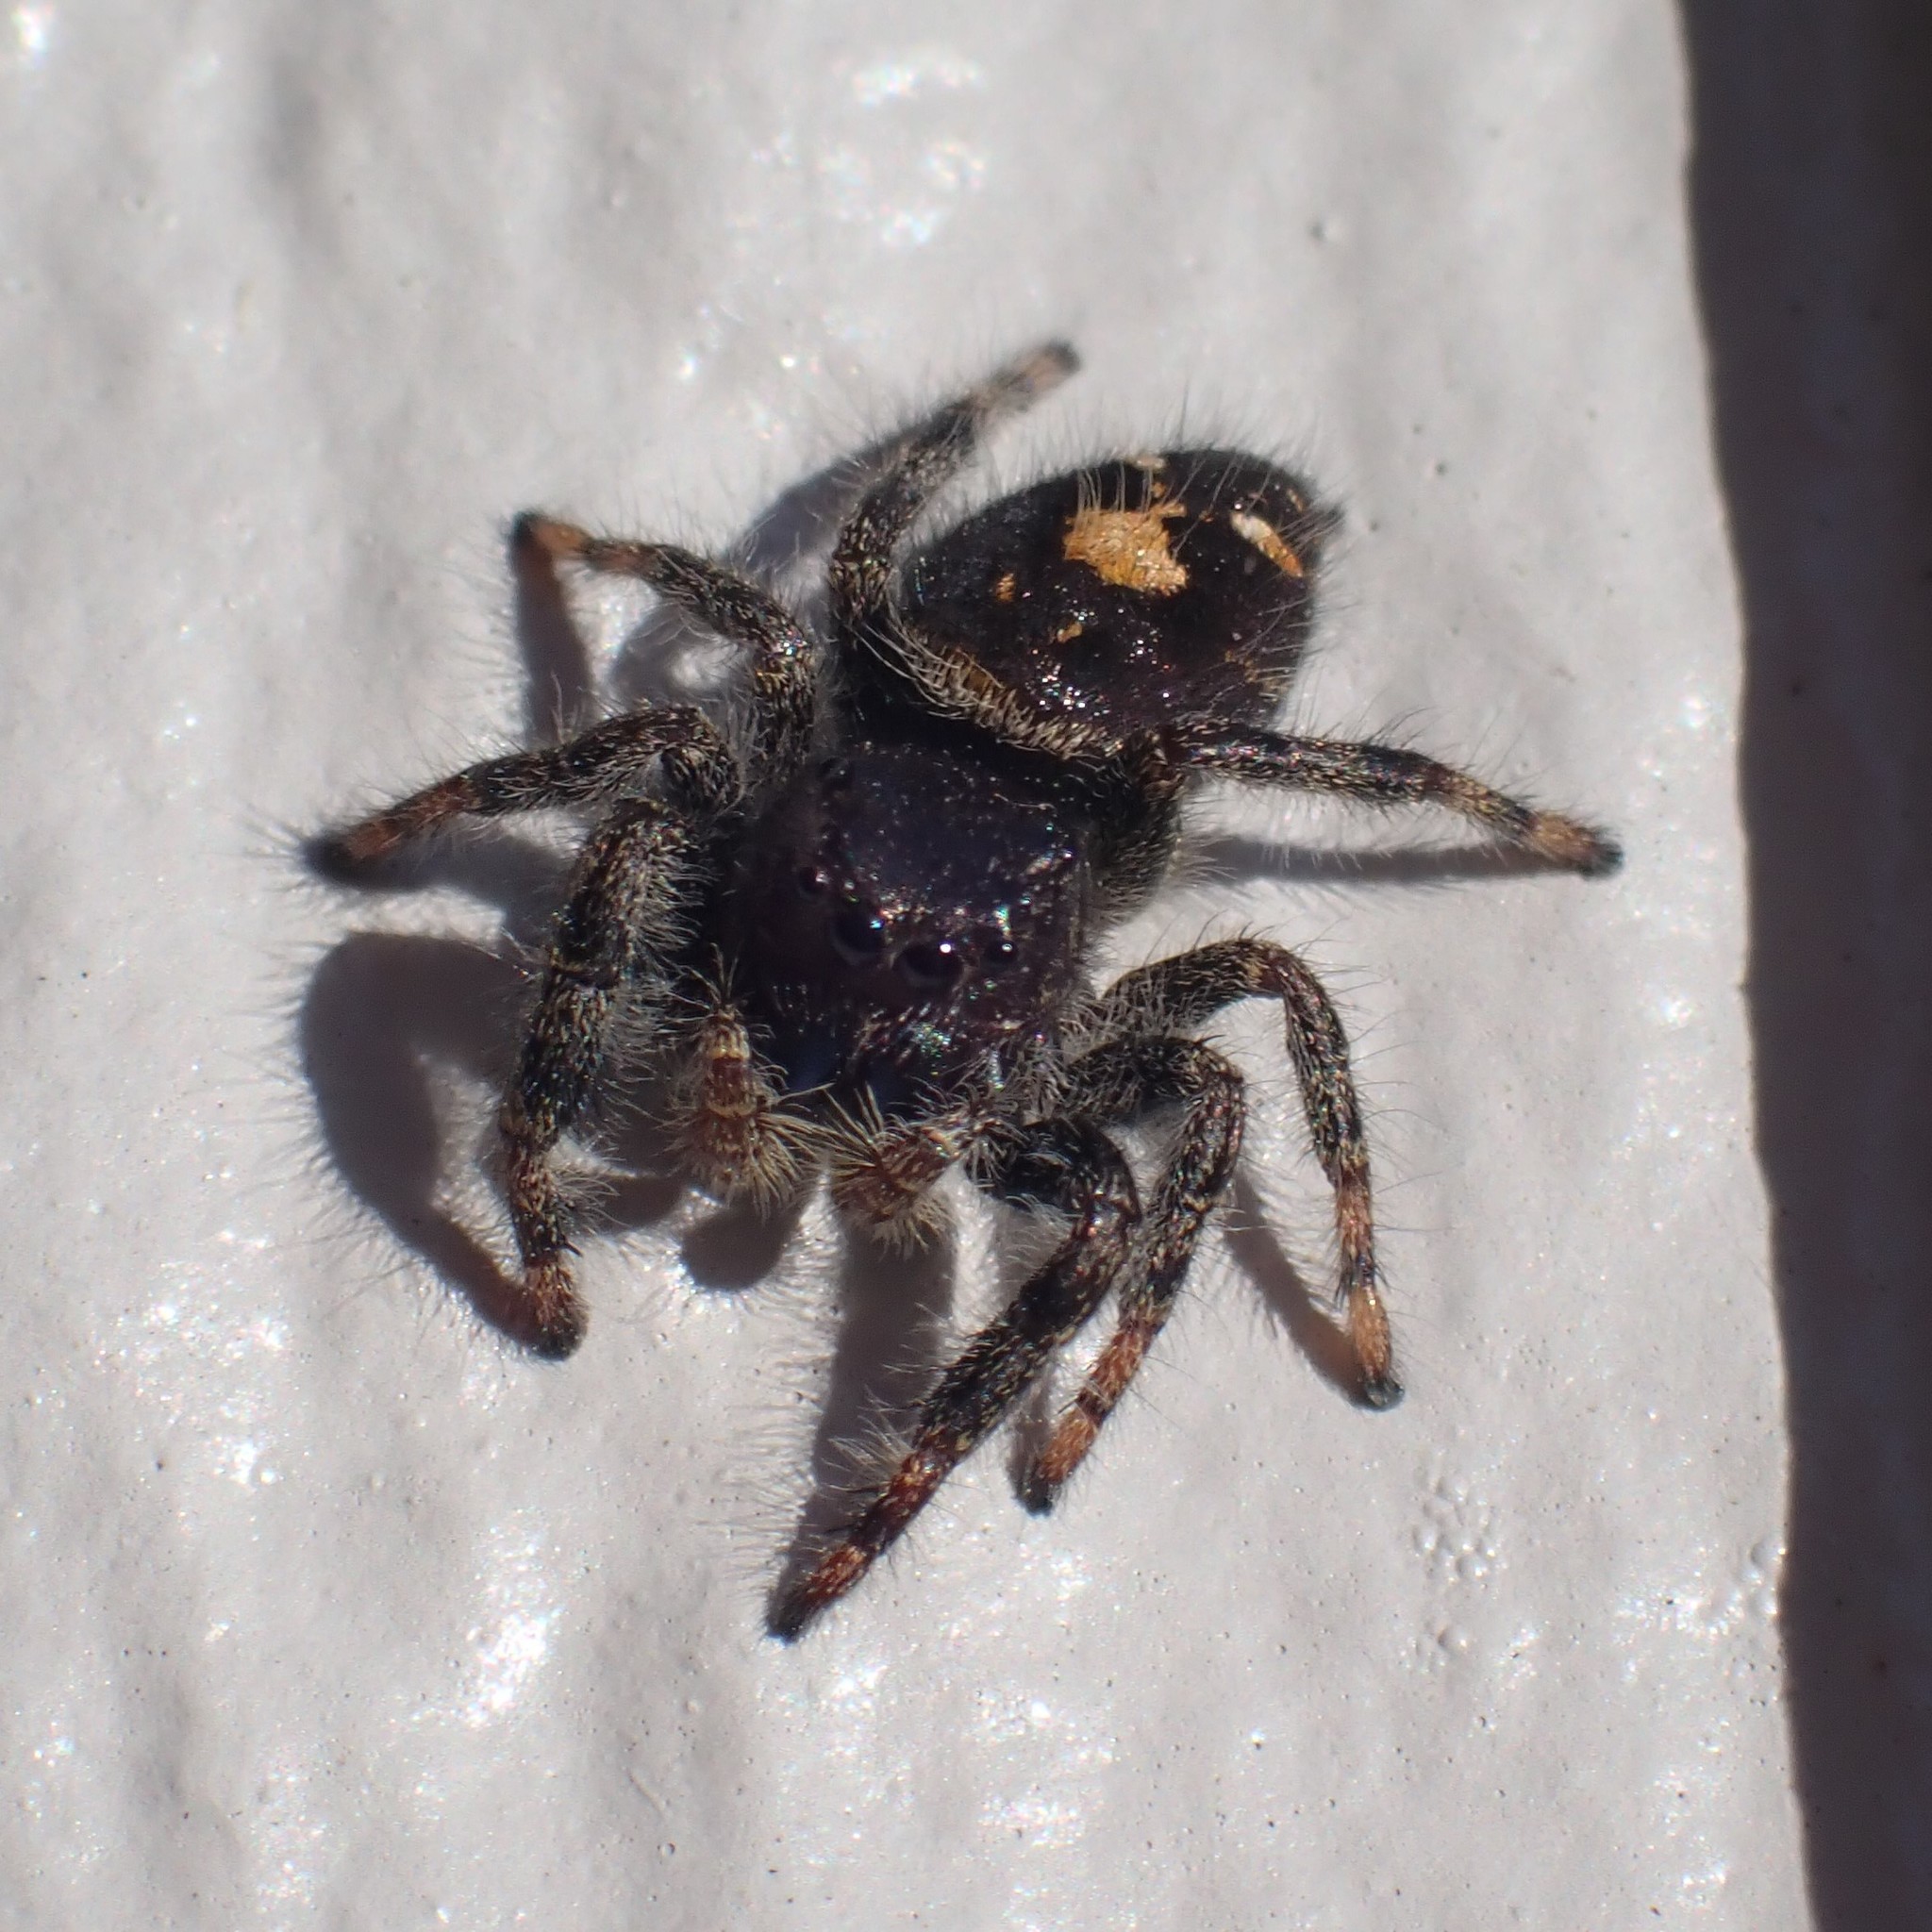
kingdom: Animalia
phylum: Arthropoda
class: Arachnida
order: Araneae
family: Salticidae
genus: Phidippus
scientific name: Phidippus audax
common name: Bold jumper
